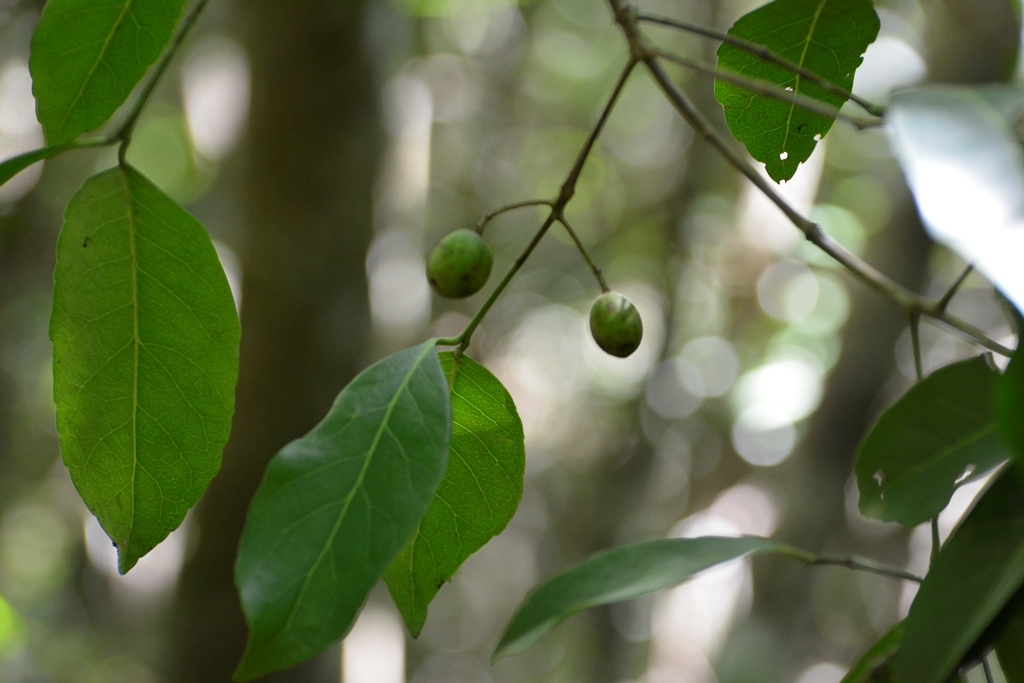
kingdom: Plantae
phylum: Tracheophyta
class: Magnoliopsida
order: Celastrales
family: Celastraceae
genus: Elaeodendron
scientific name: Elaeodendron xylocarpum
